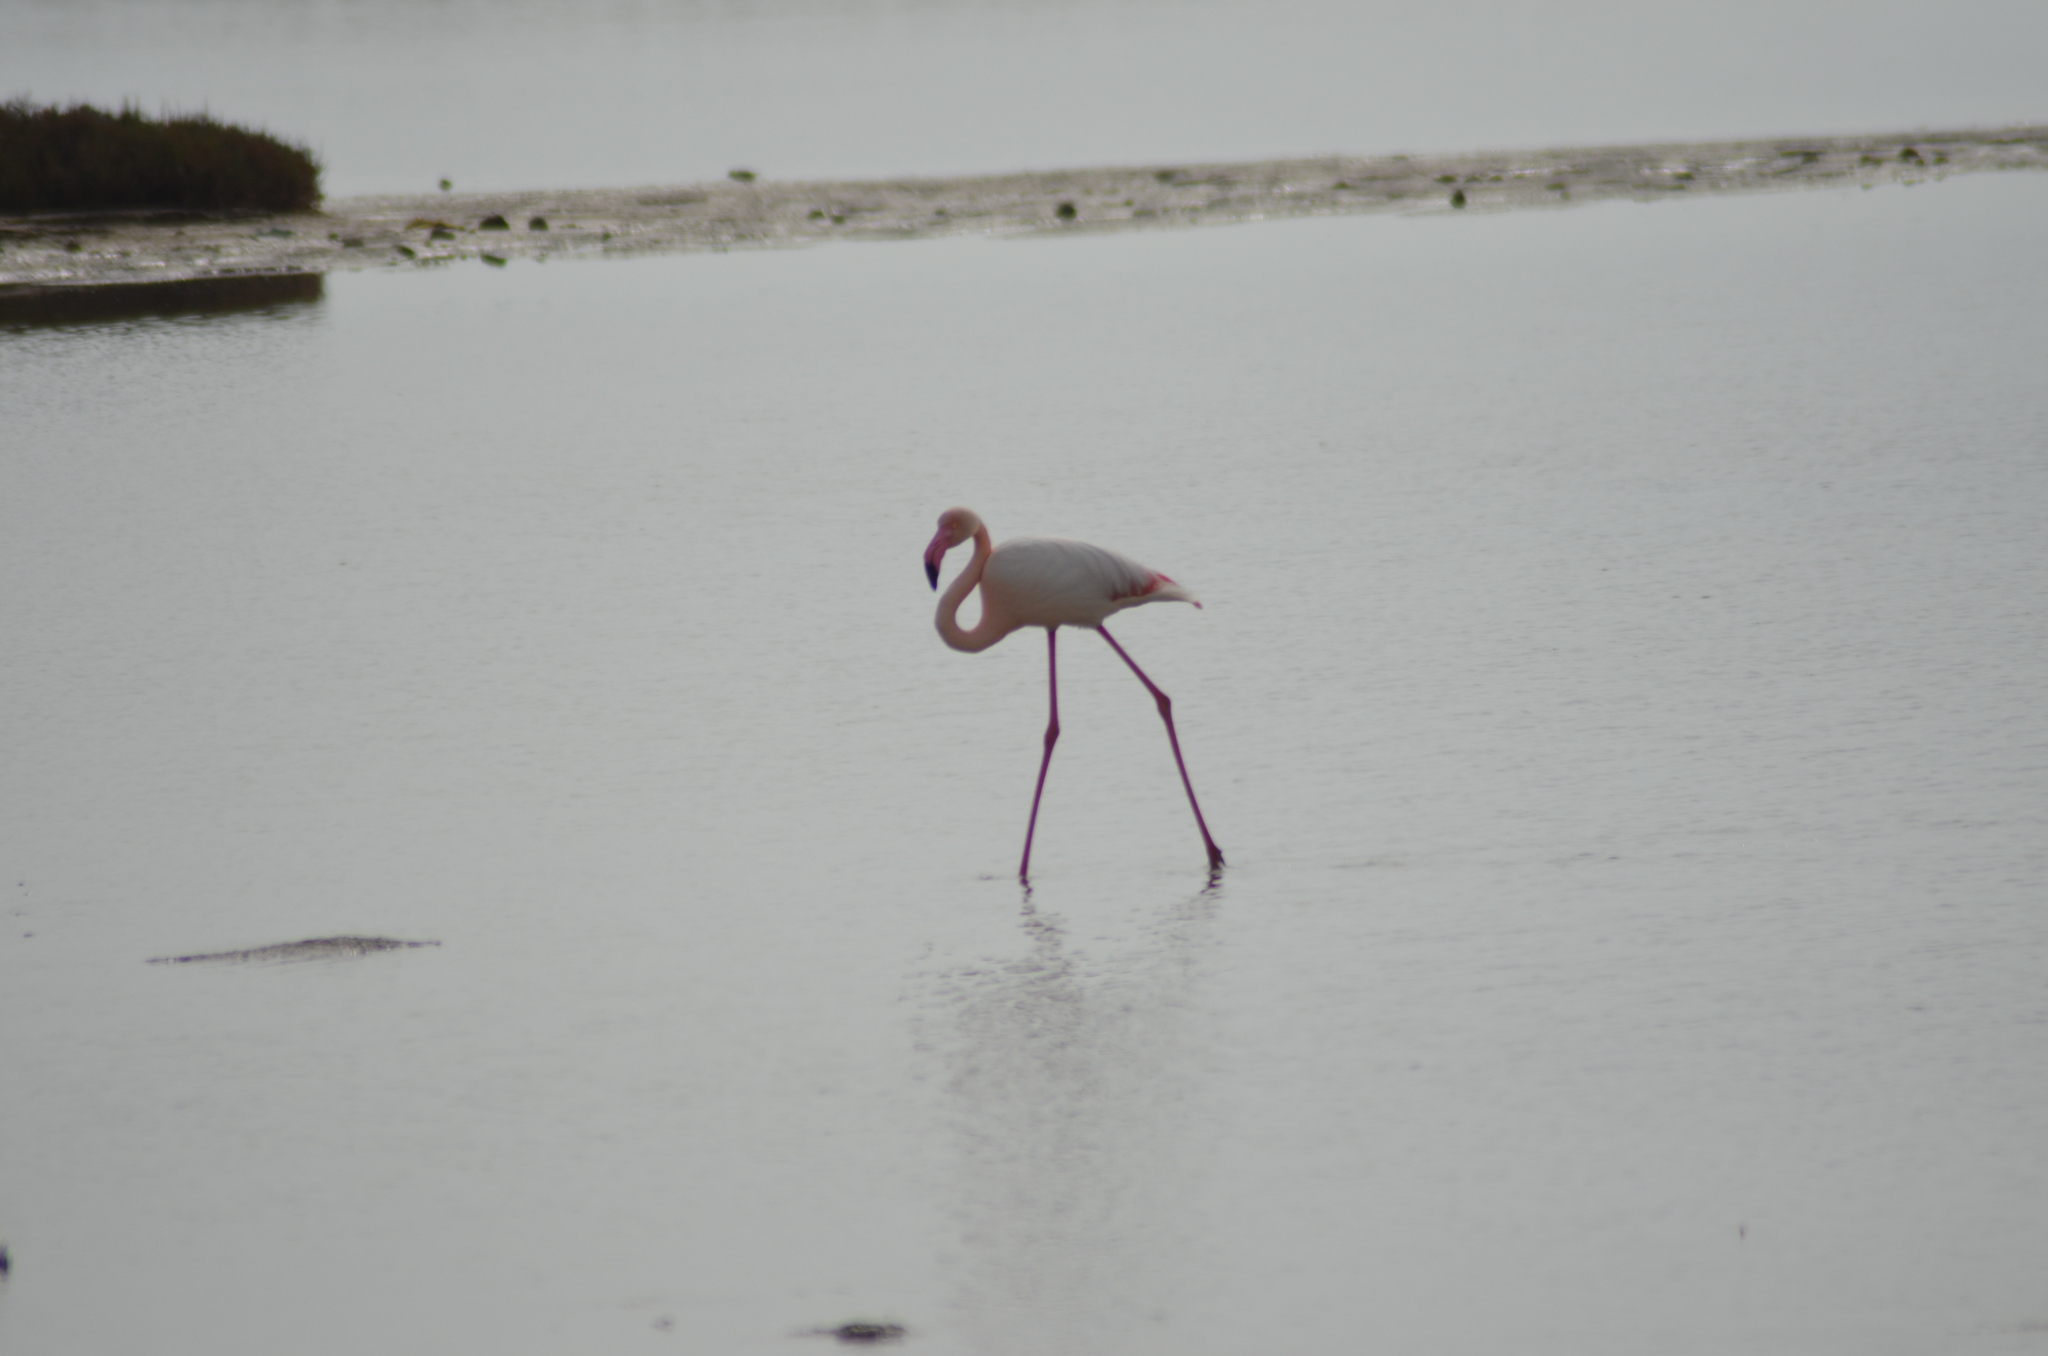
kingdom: Animalia
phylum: Chordata
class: Aves
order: Phoenicopteriformes
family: Phoenicopteridae
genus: Phoenicopterus
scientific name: Phoenicopterus roseus
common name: Greater flamingo
